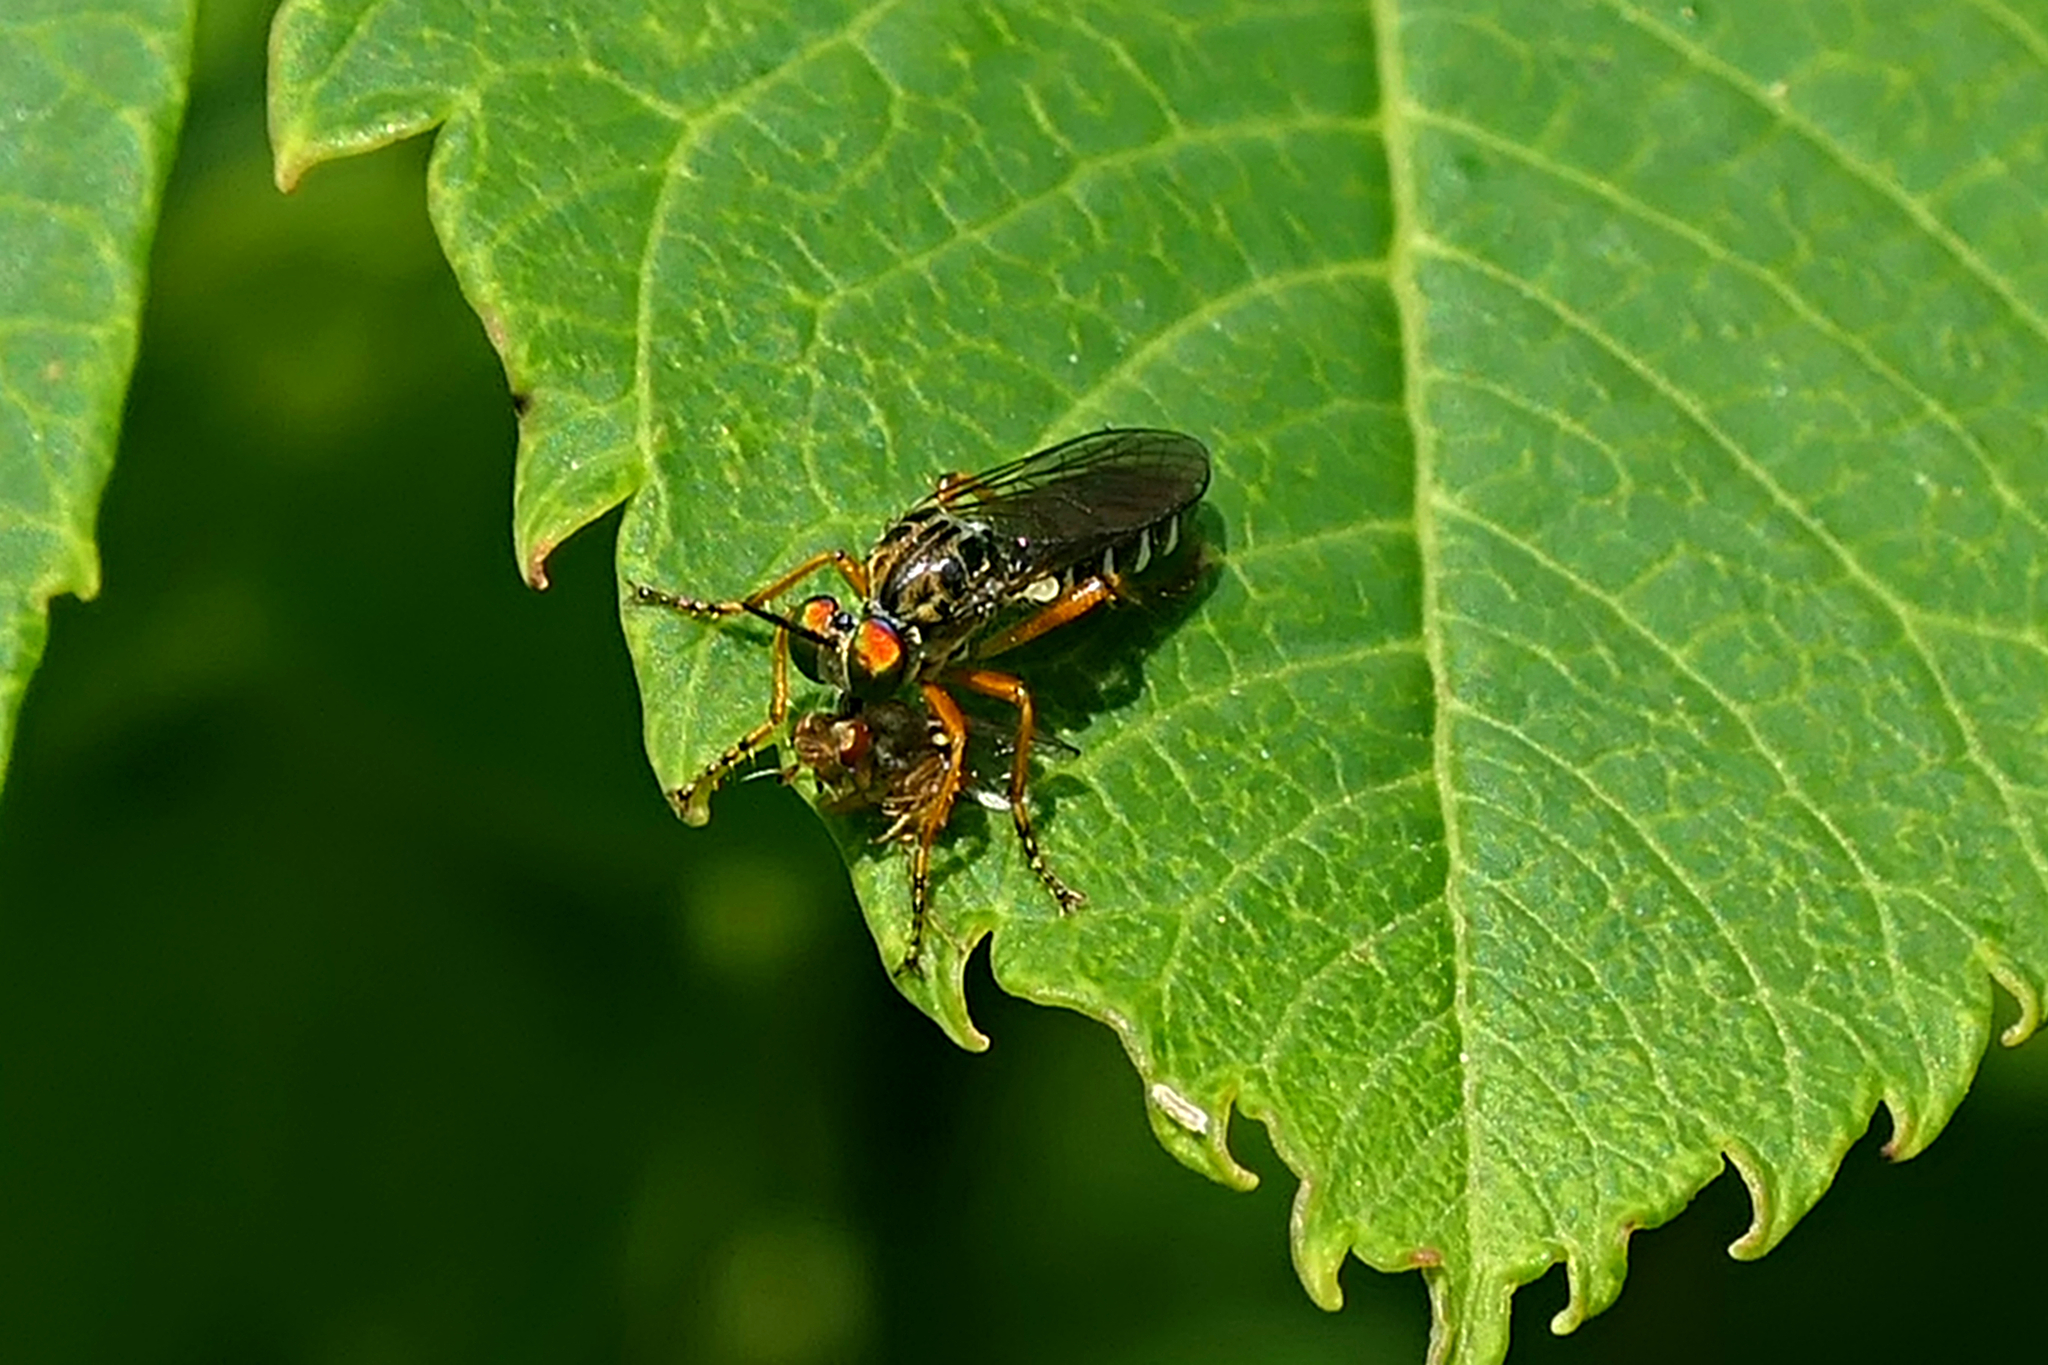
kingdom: Animalia
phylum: Arthropoda
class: Insecta
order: Diptera
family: Asilidae
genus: Taracticus
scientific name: Taracticus octopunctatus
